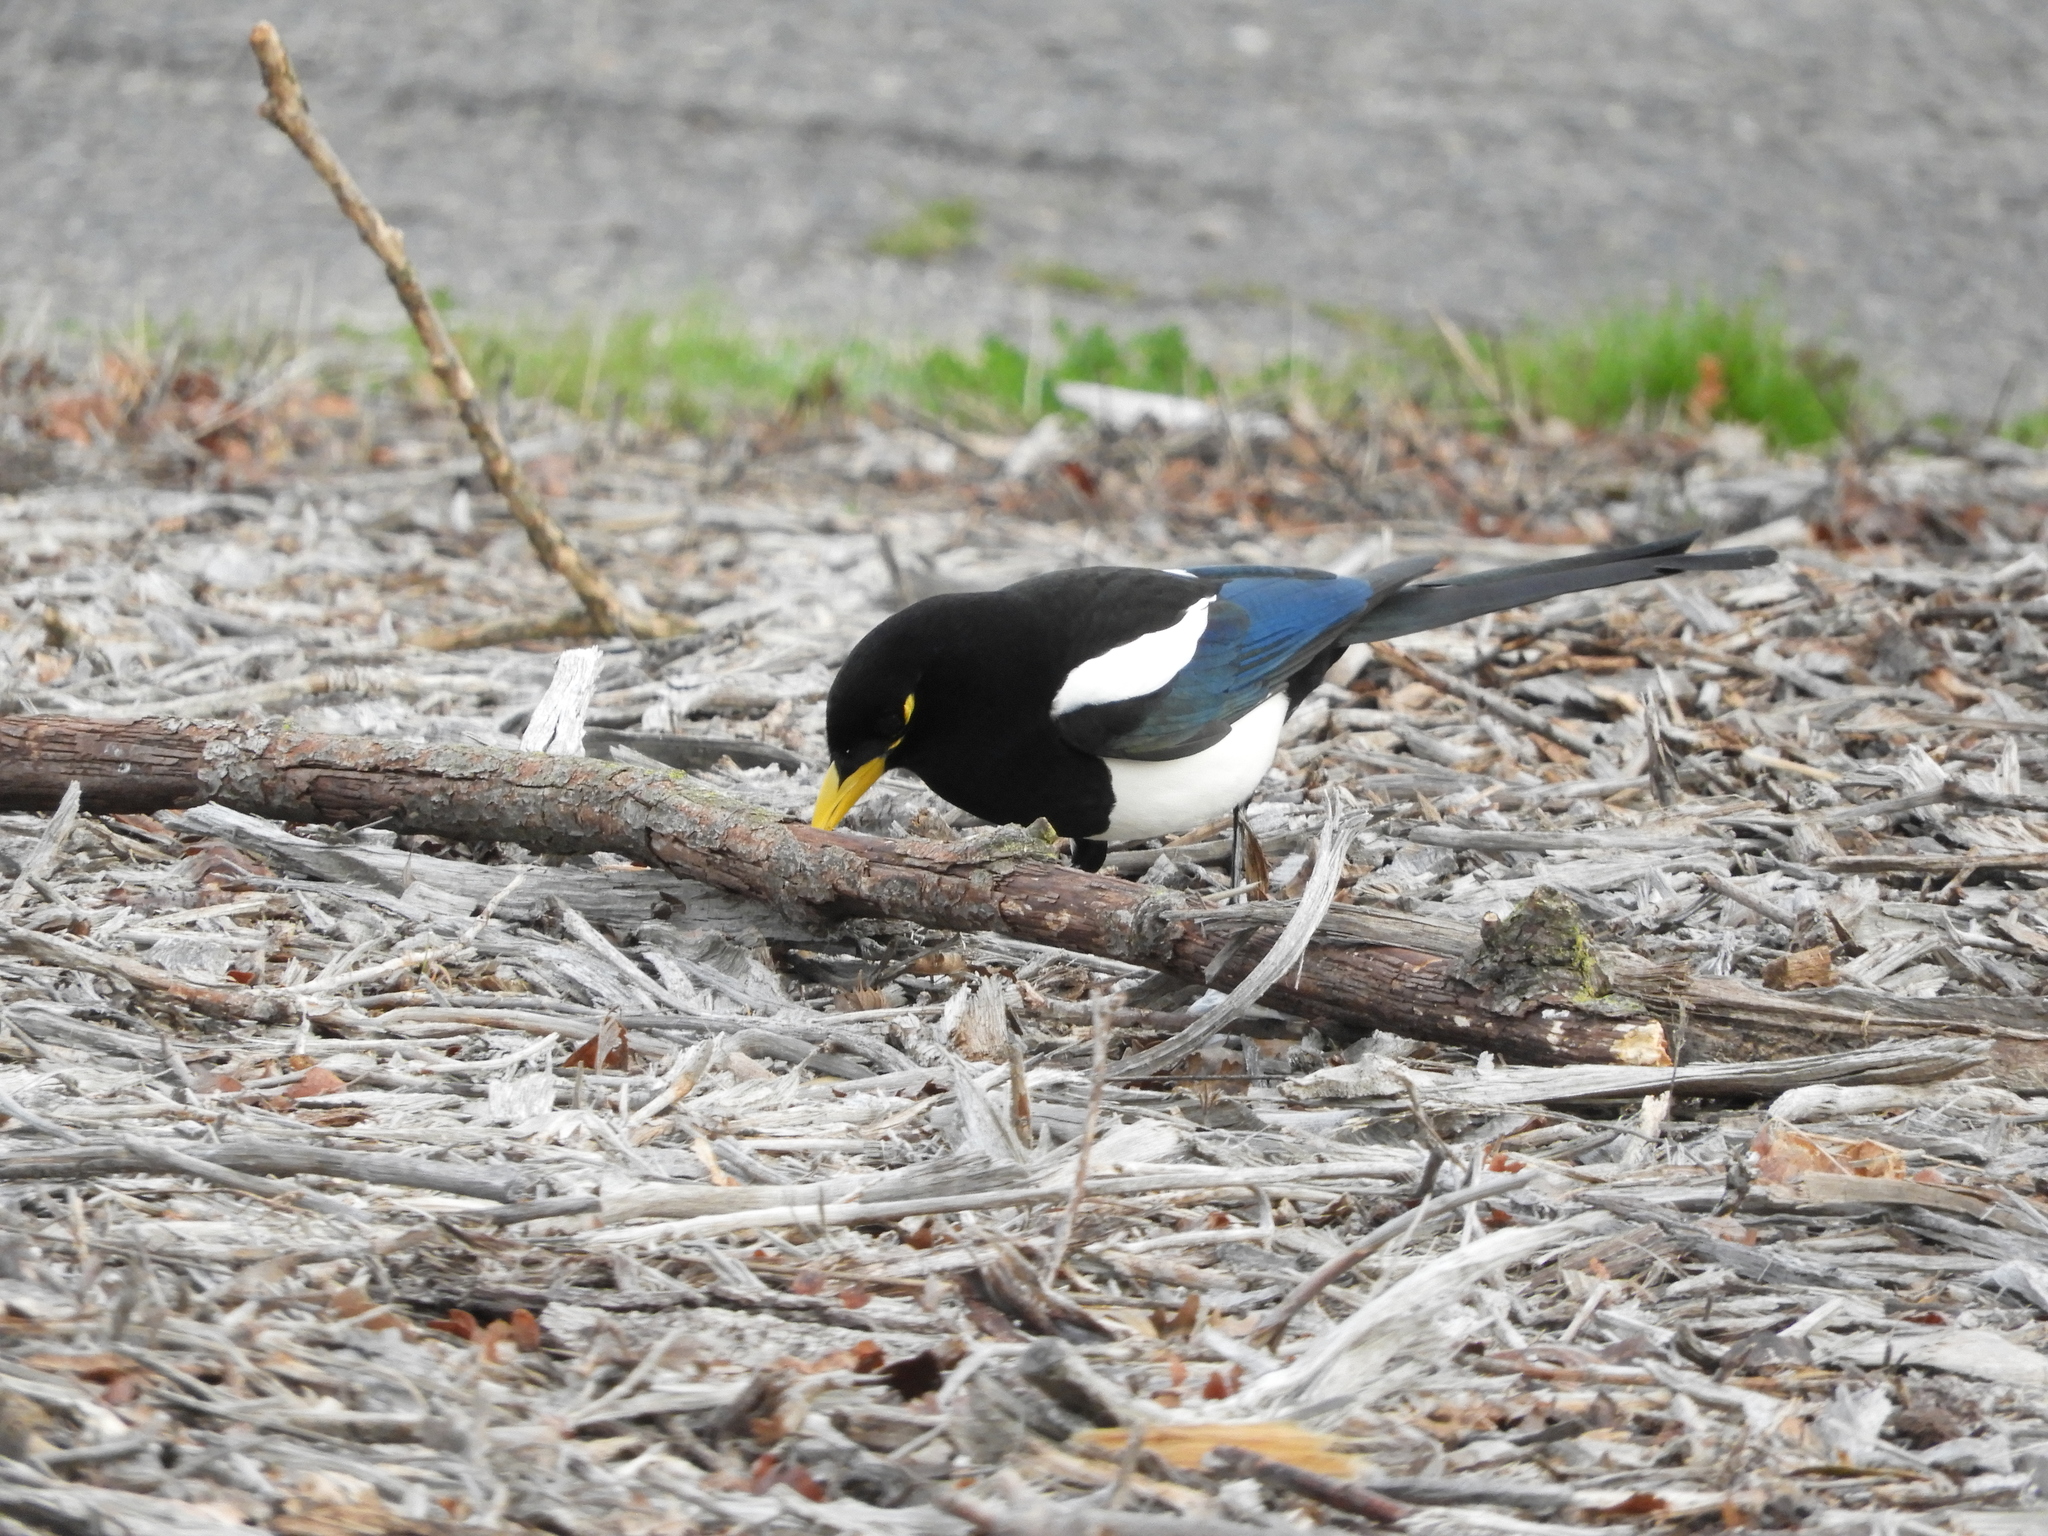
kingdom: Animalia
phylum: Chordata
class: Aves
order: Passeriformes
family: Corvidae
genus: Pica
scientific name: Pica nuttalli
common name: Yellow-billed magpie
